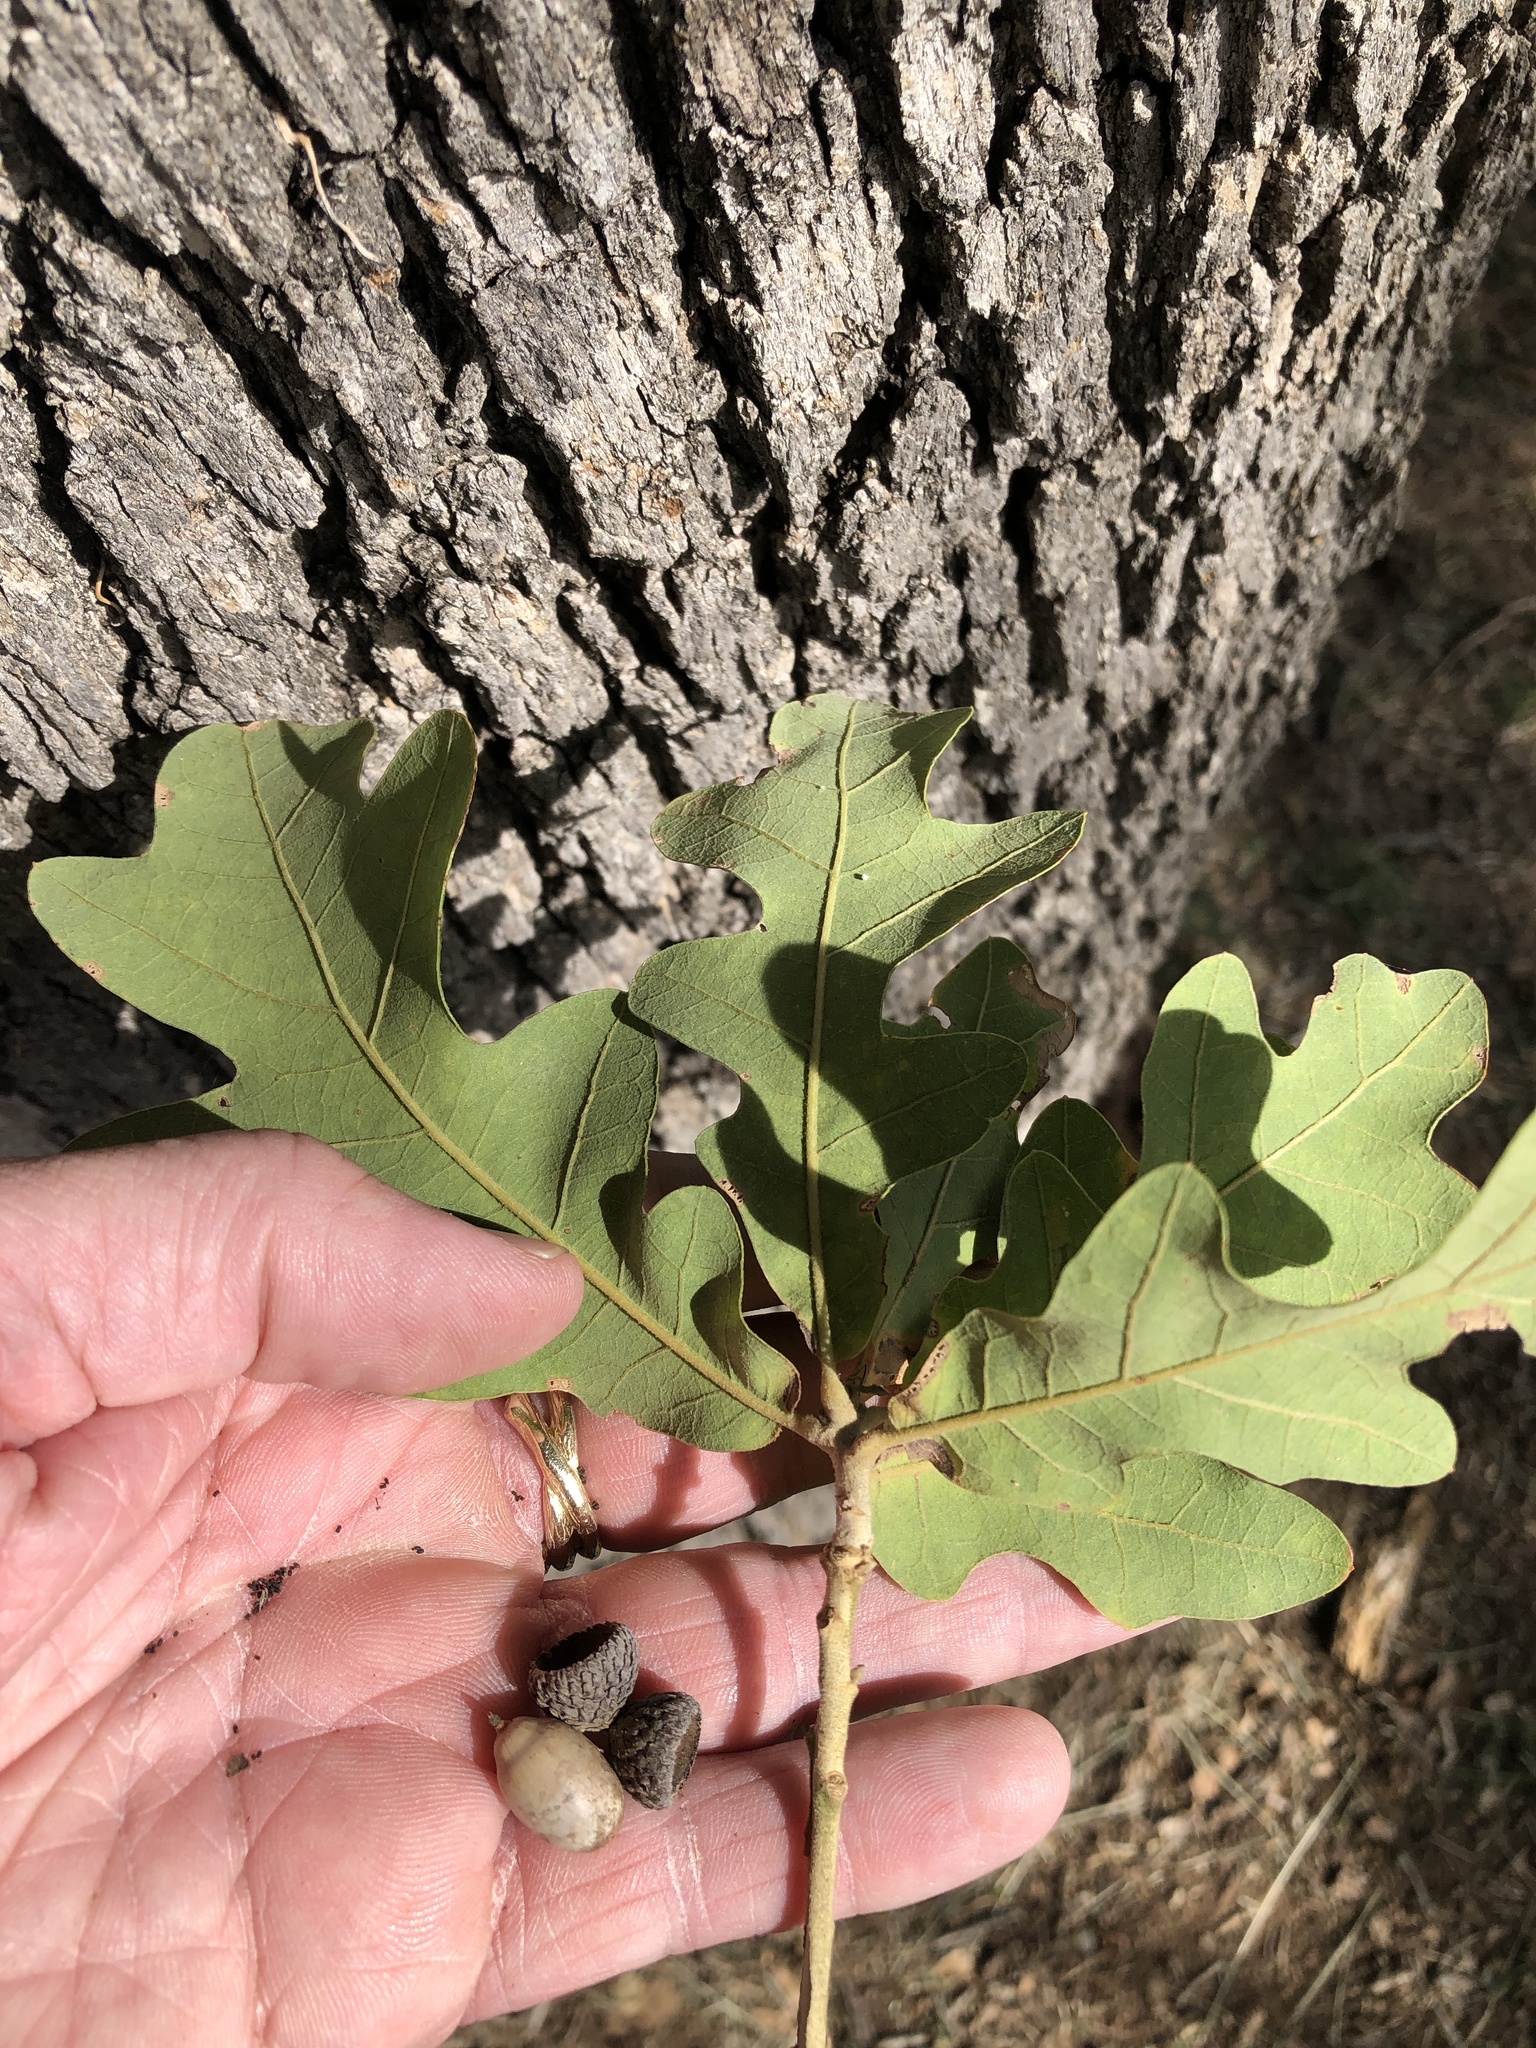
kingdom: Plantae
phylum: Tracheophyta
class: Magnoliopsida
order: Fagales
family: Fagaceae
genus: Quercus
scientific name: Quercus stellata
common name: Post oak
